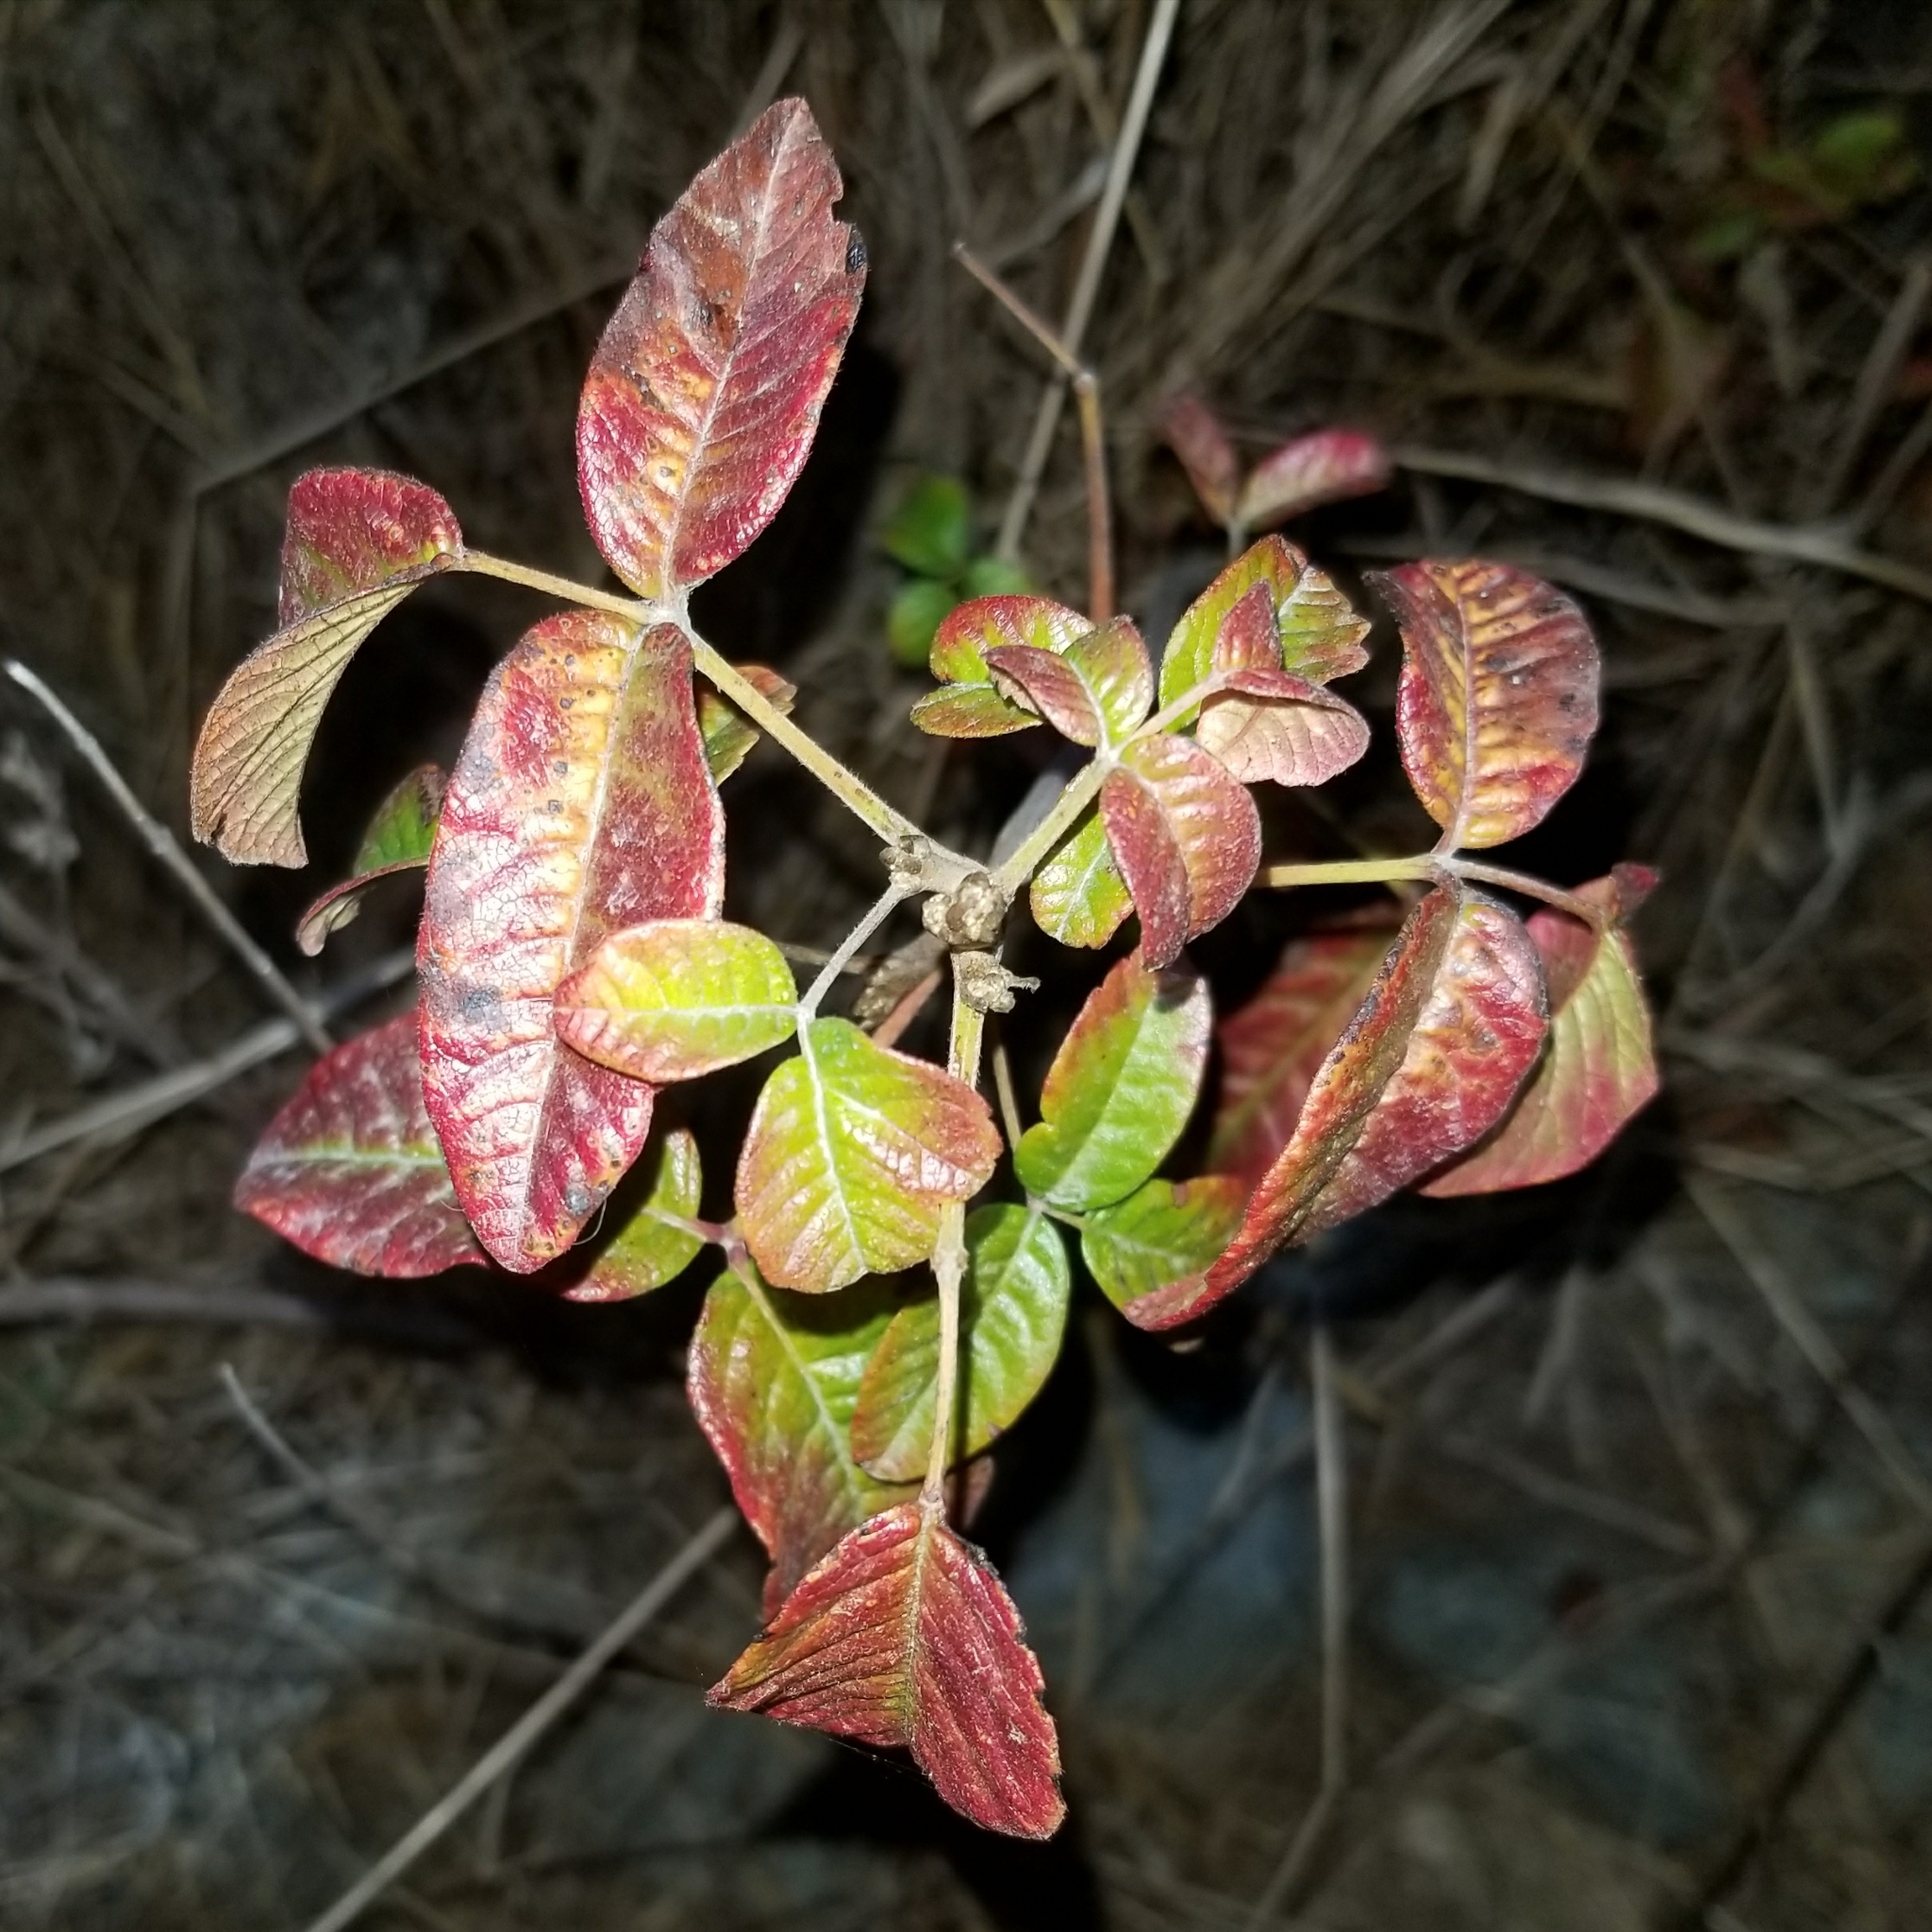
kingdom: Plantae
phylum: Tracheophyta
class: Magnoliopsida
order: Sapindales
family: Anacardiaceae
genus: Toxicodendron
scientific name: Toxicodendron diversilobum
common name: Pacific poison-oak
